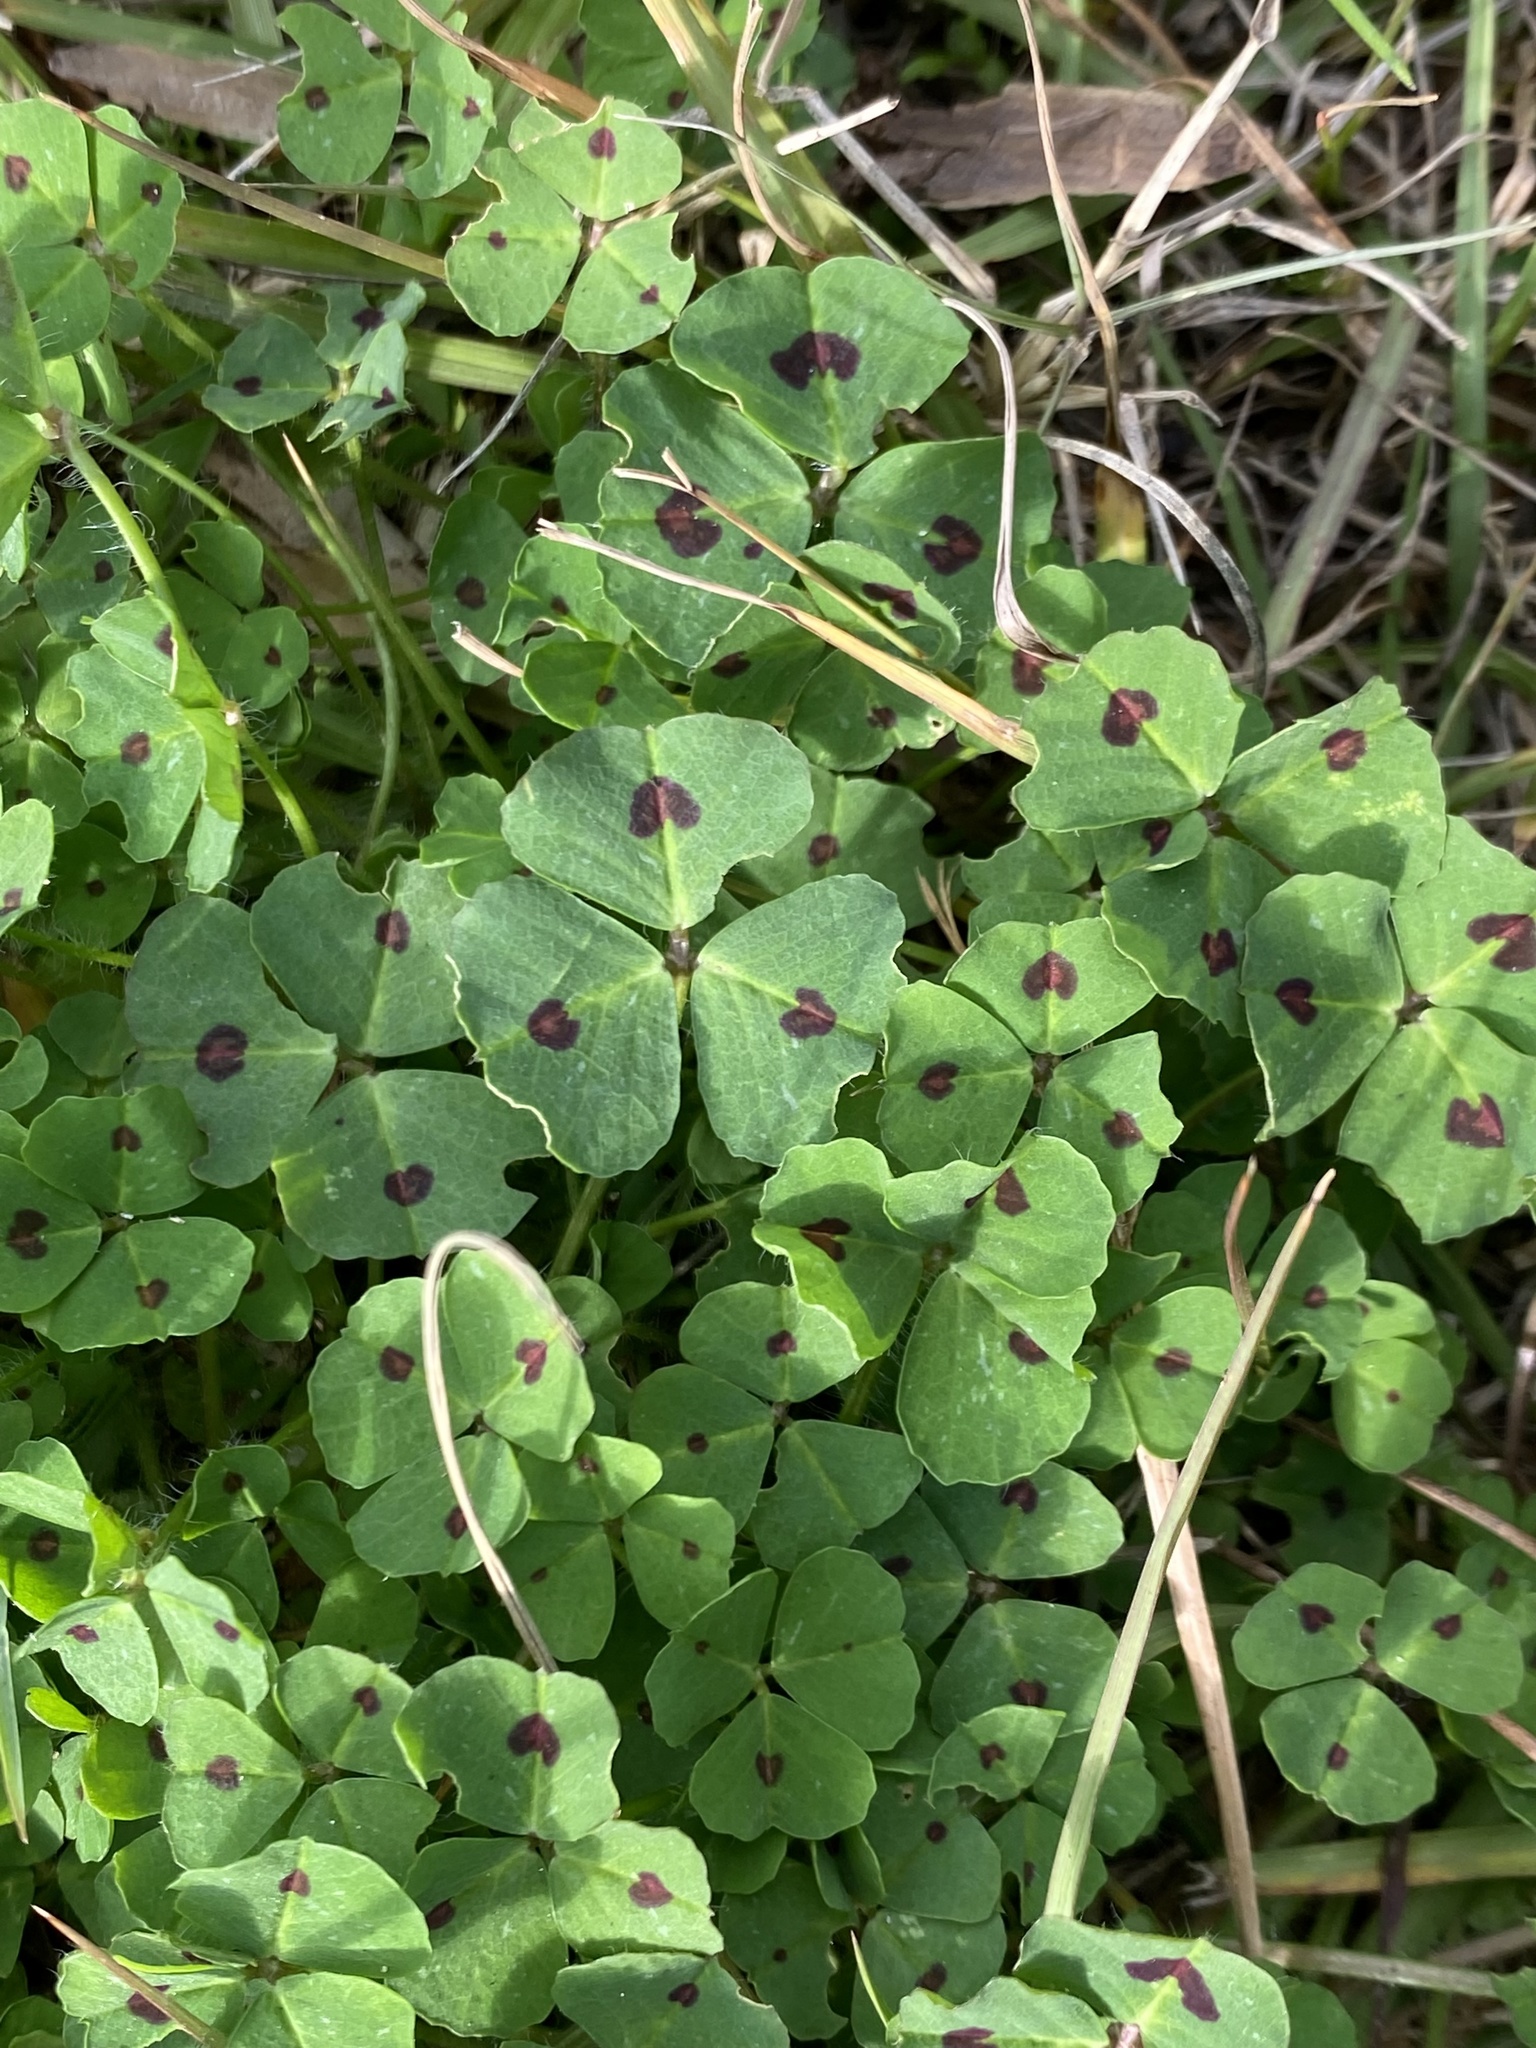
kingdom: Plantae
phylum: Tracheophyta
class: Magnoliopsida
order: Fabales
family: Fabaceae
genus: Medicago
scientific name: Medicago arabica
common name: Spotted medick
